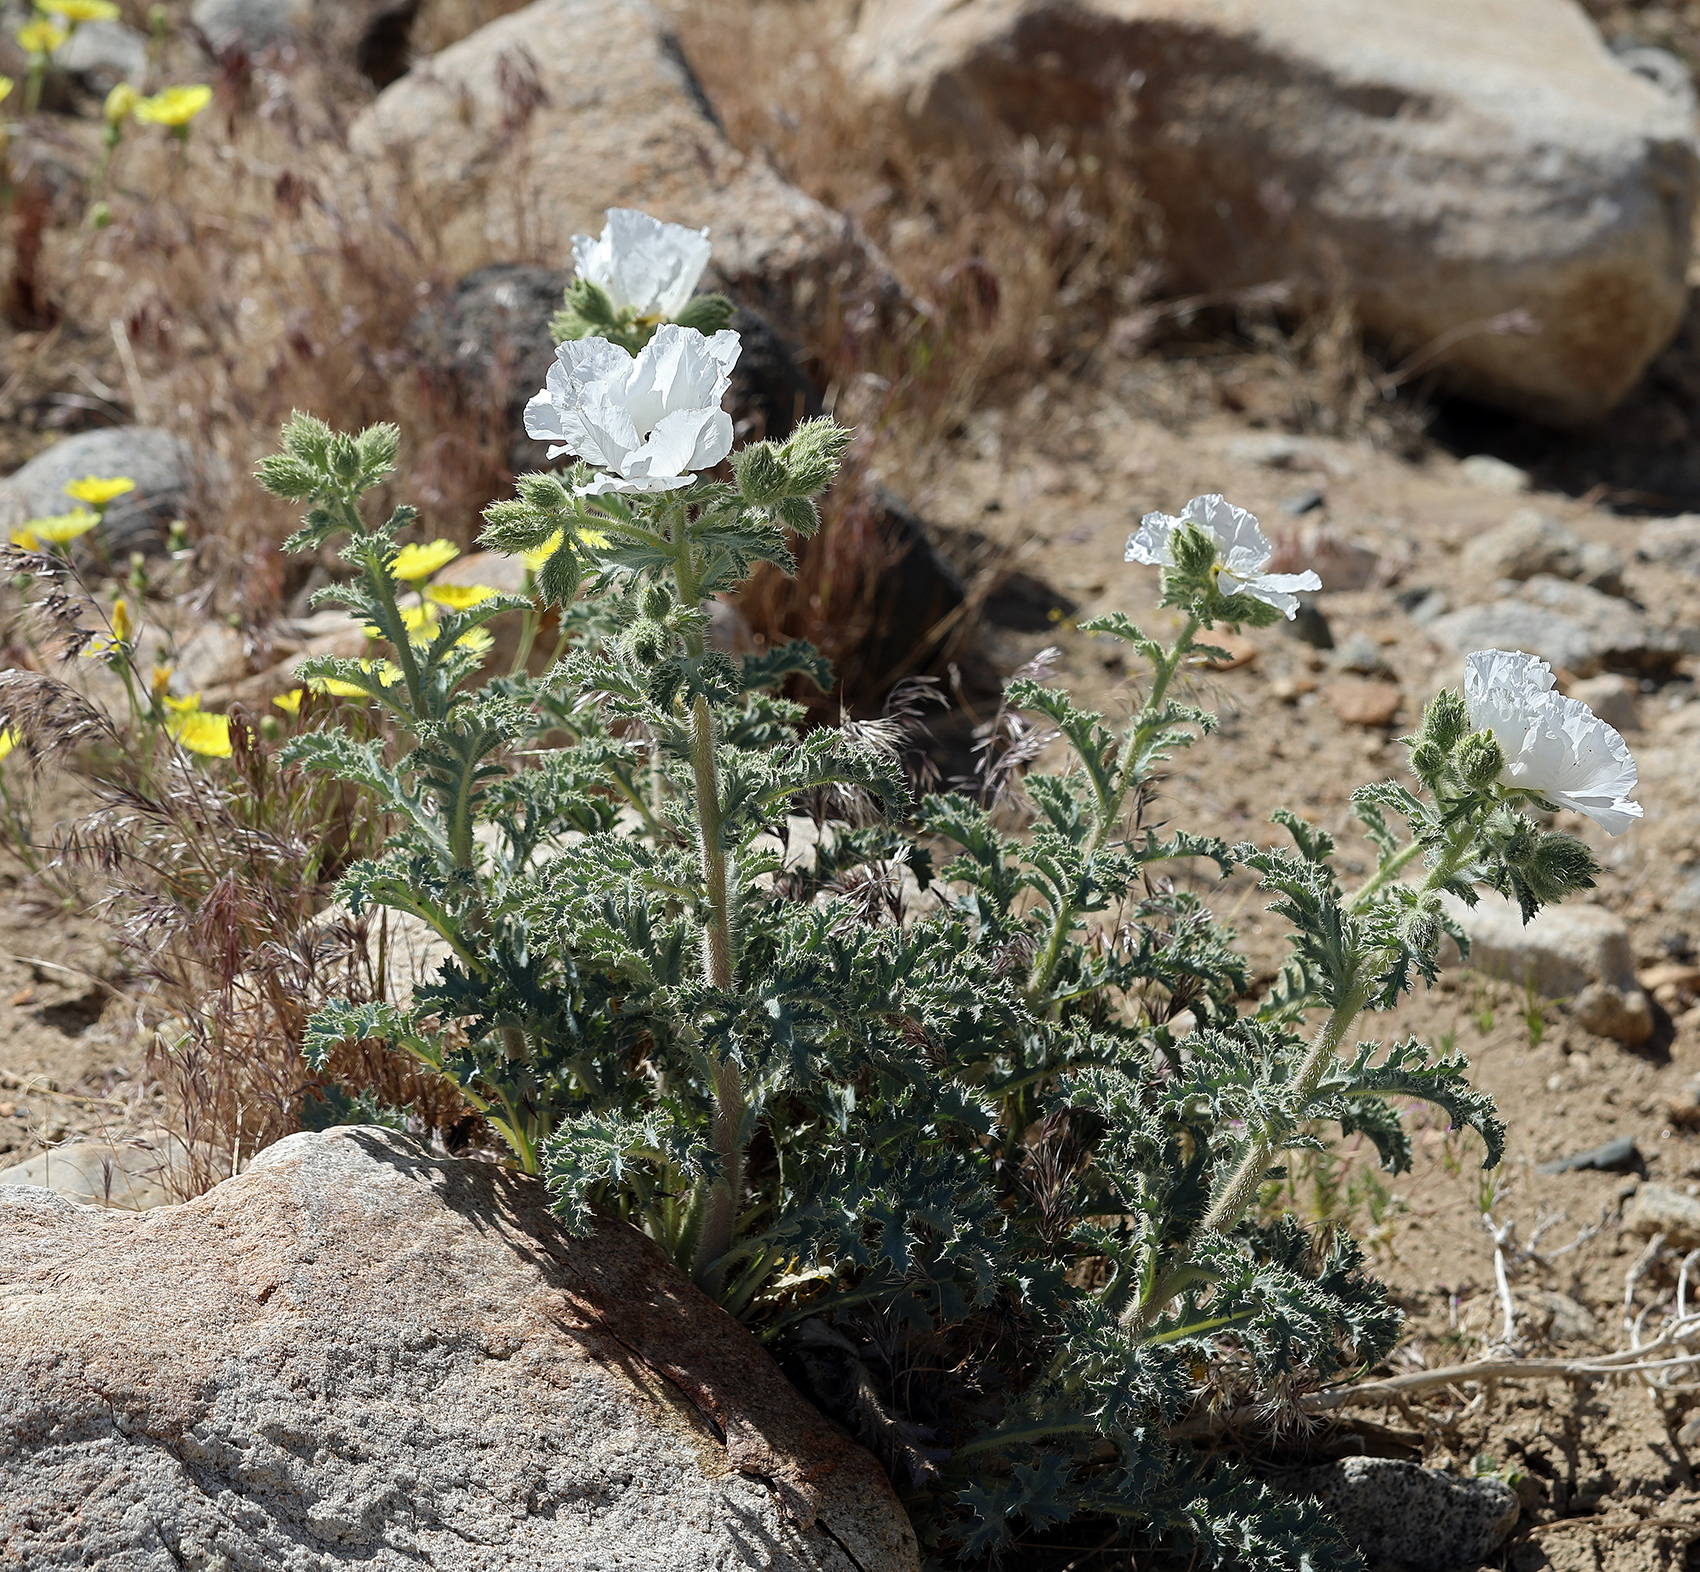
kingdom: Plantae
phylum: Tracheophyta
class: Magnoliopsida
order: Ranunculales
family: Papaveraceae
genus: Argemone
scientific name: Argemone munita
